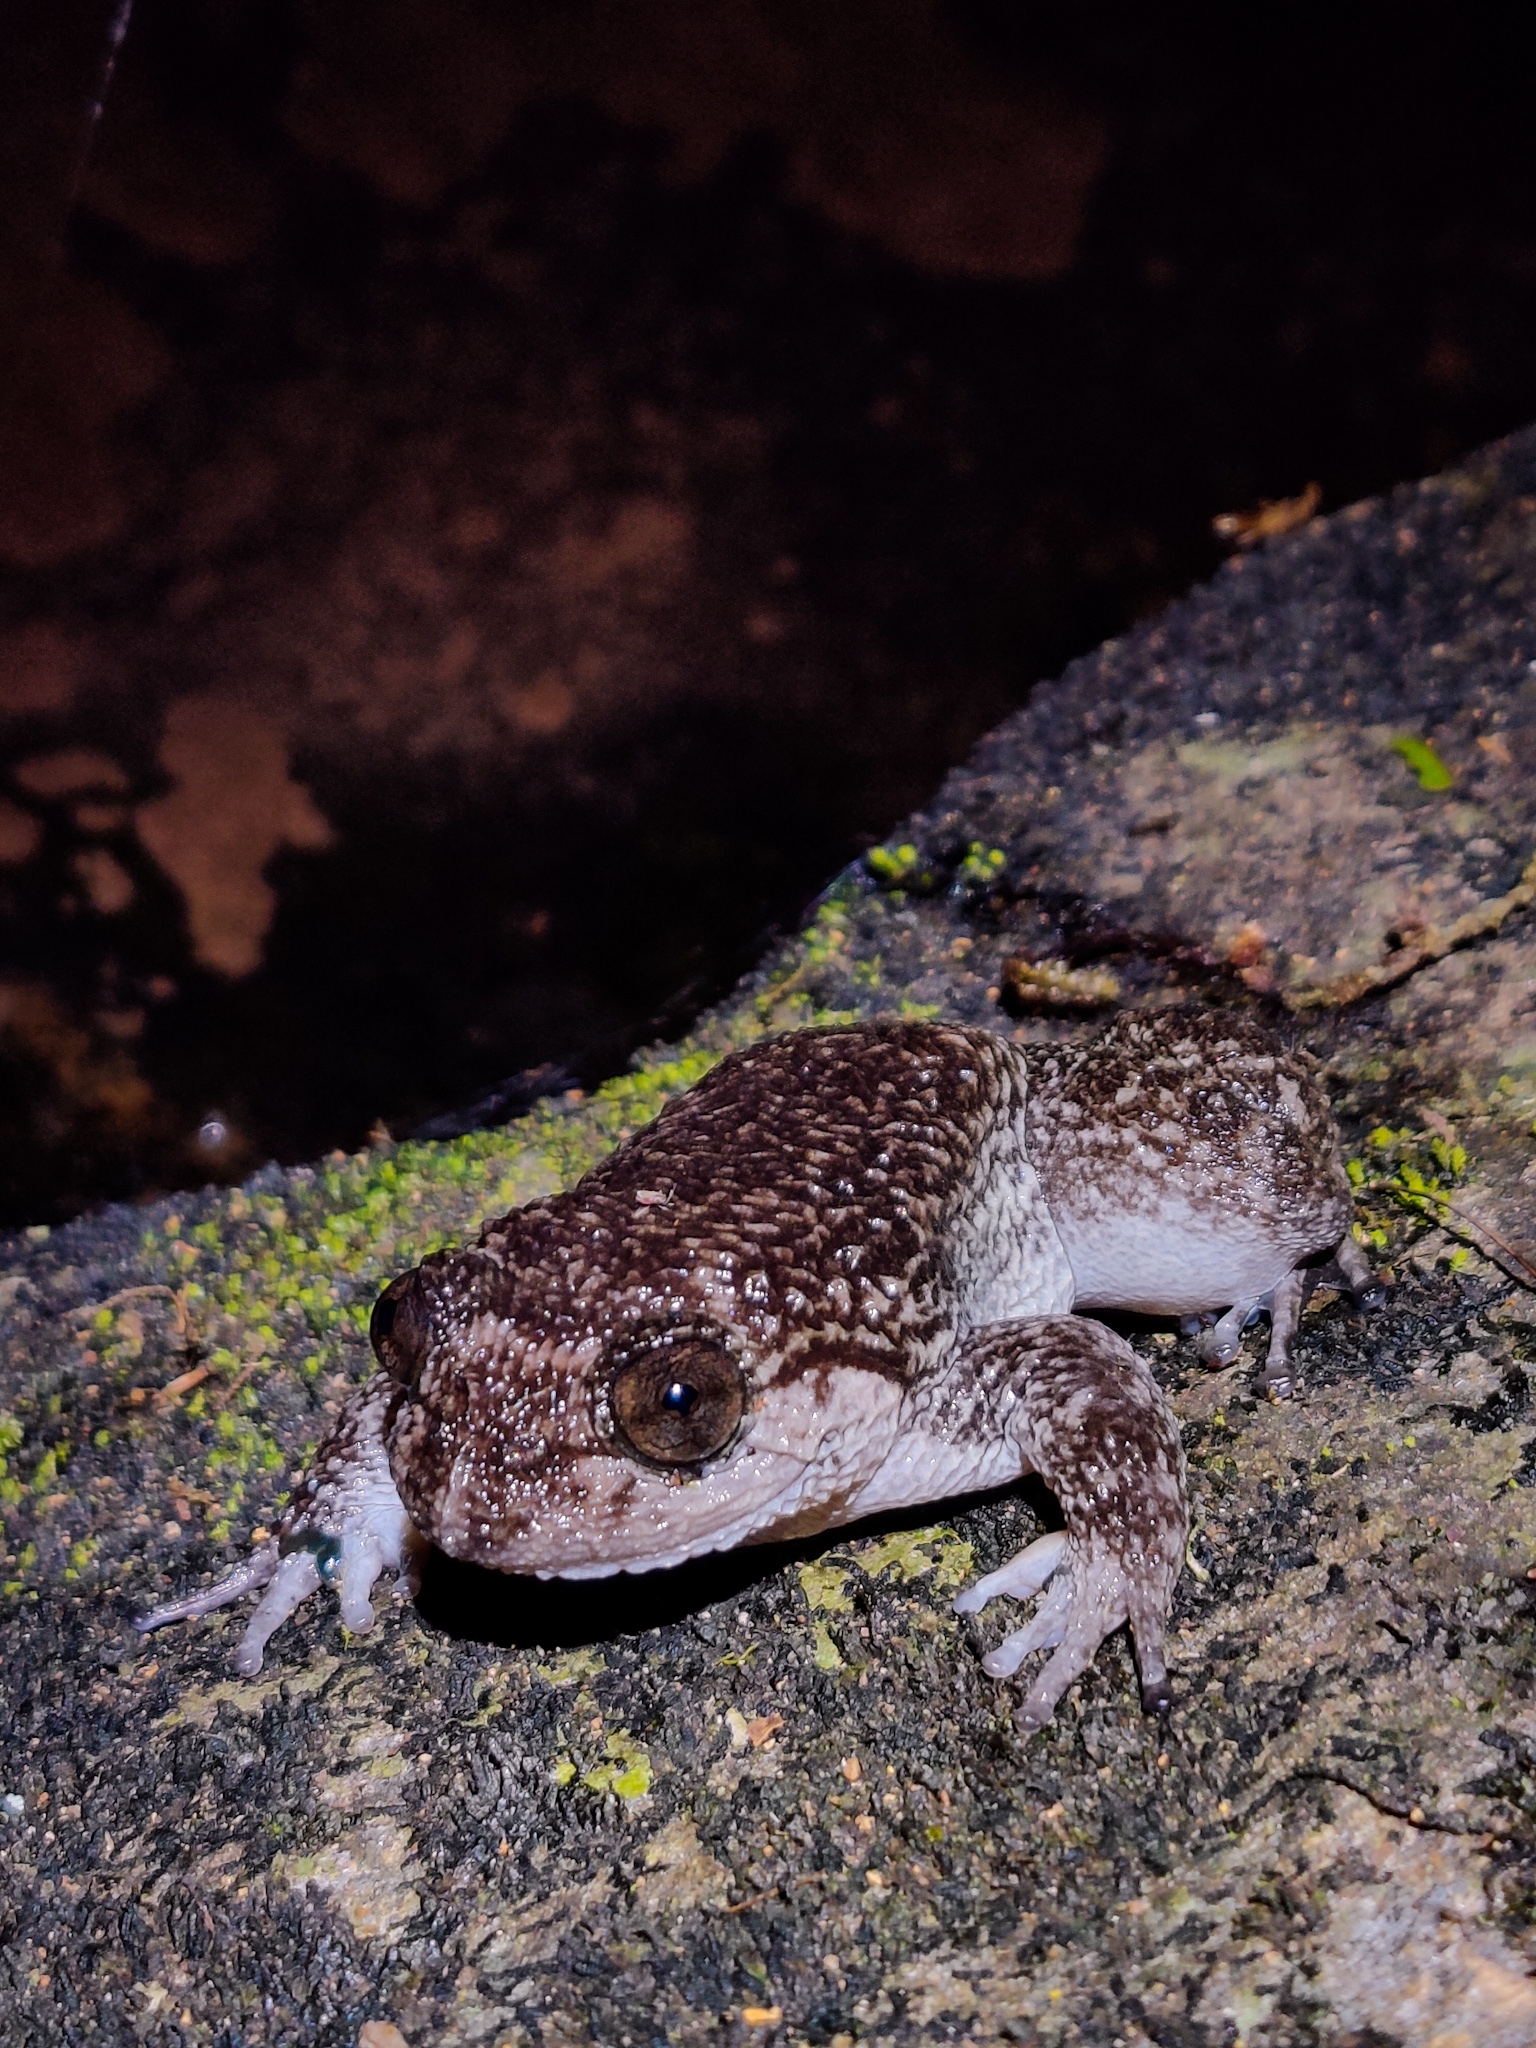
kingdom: Animalia
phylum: Chordata
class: Amphibia
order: Anura
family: Nyctibatrachidae
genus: Nyctibatrachus
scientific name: Nyctibatrachus grandis
